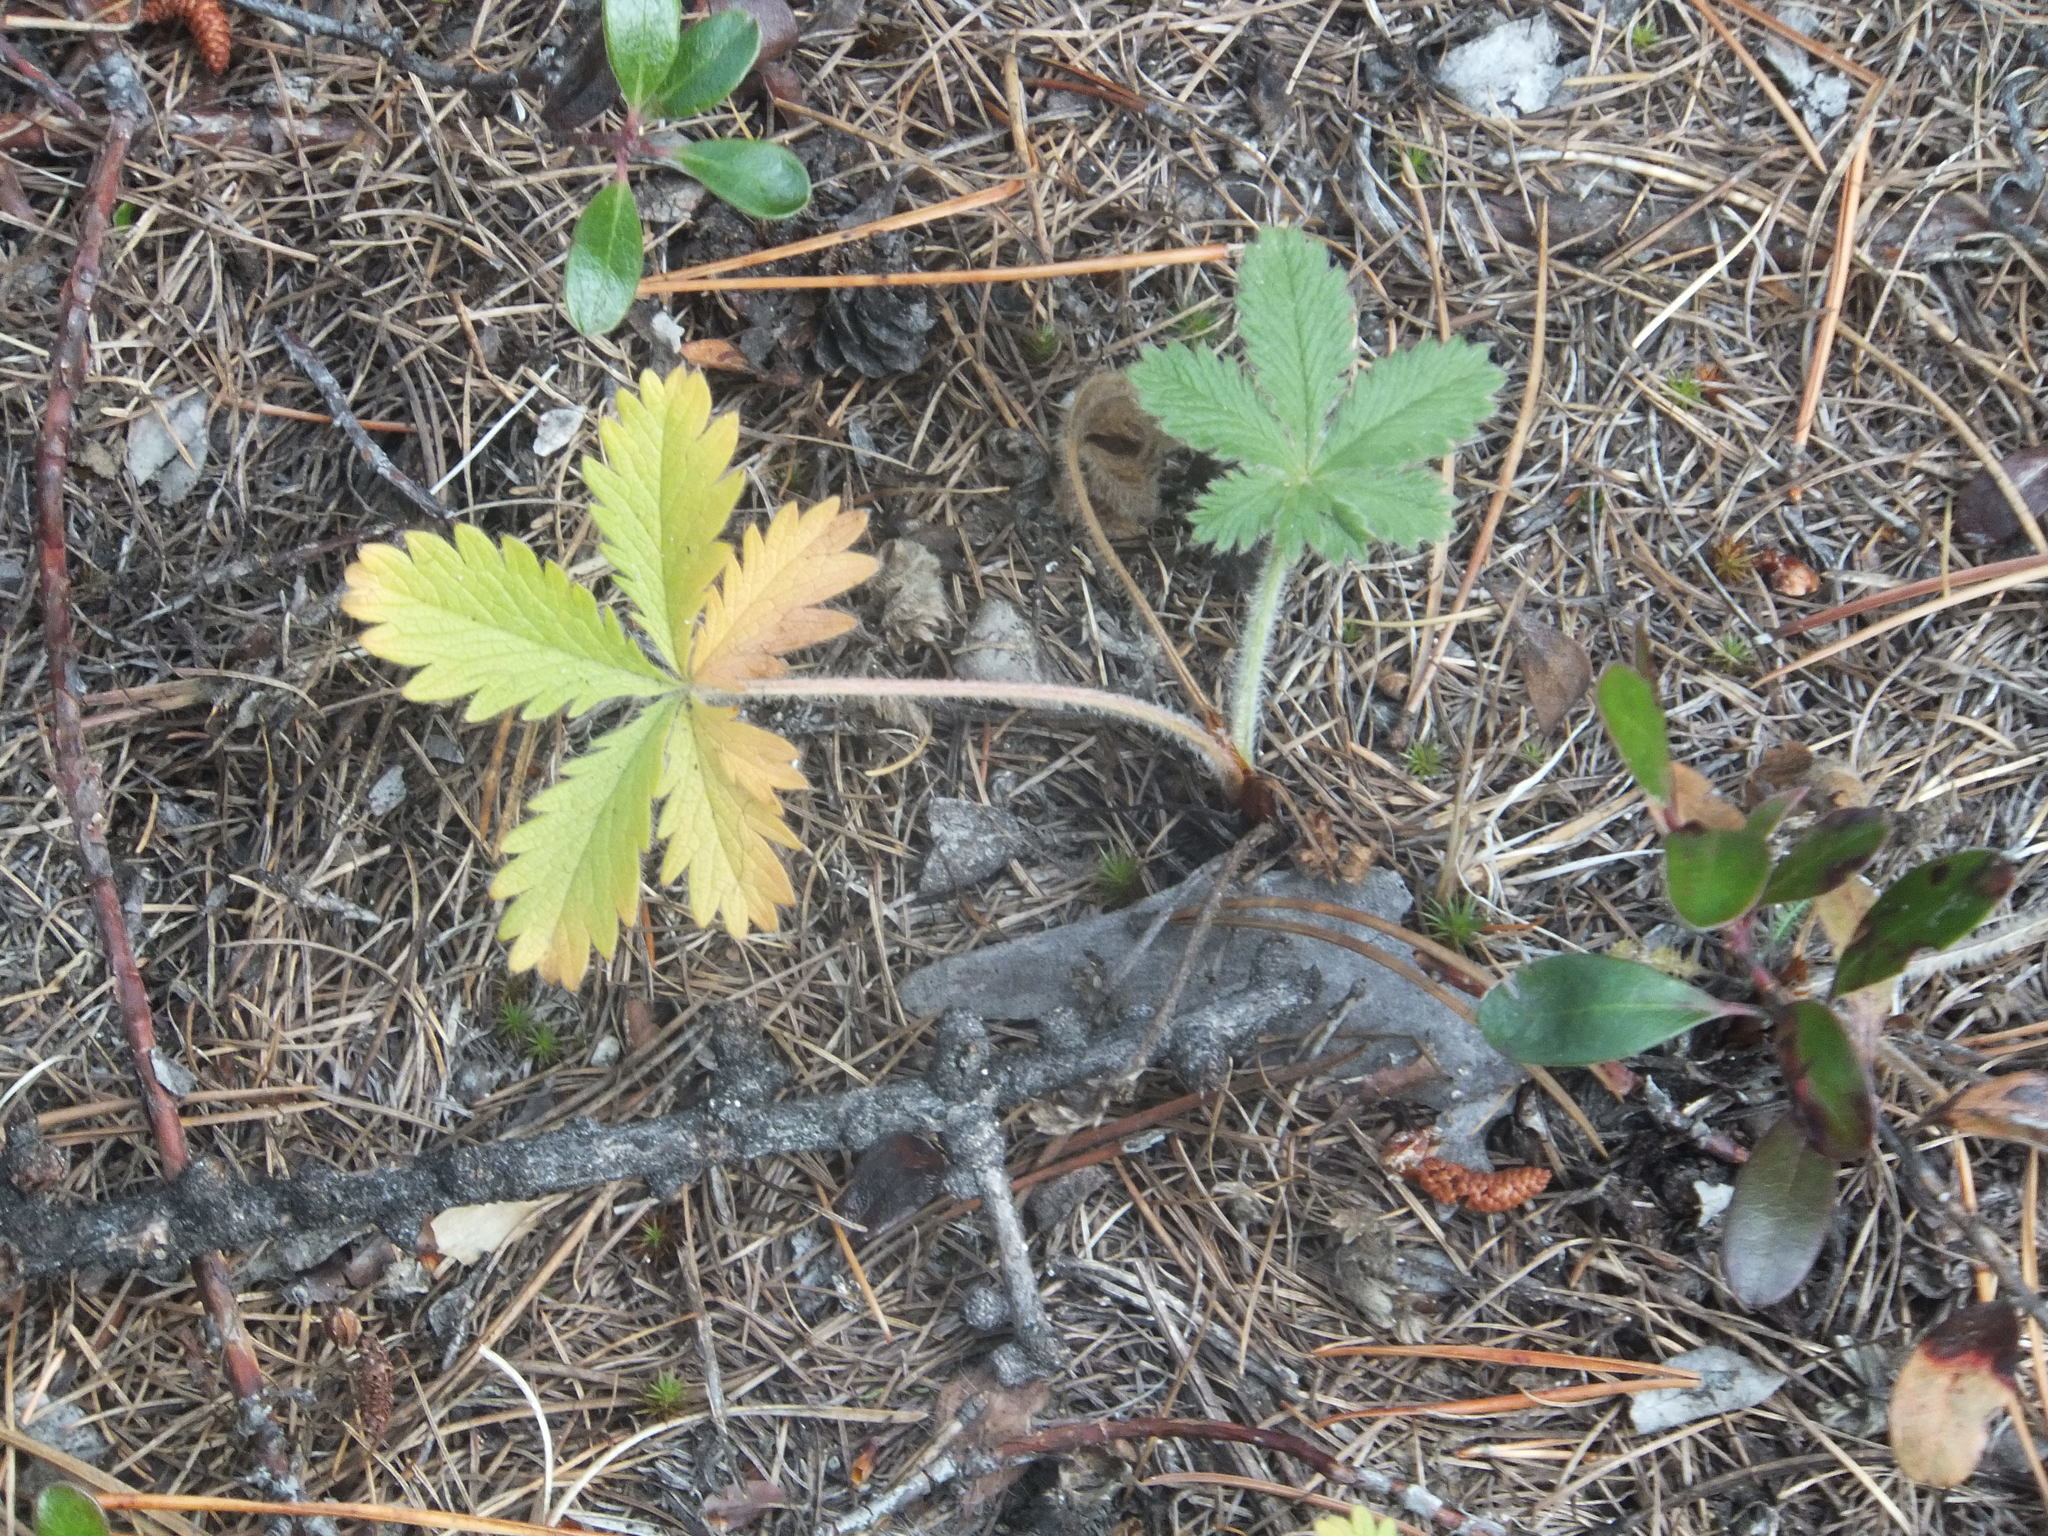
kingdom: Plantae
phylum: Tracheophyta
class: Magnoliopsida
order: Rosales
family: Rosaceae
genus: Potentilla
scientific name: Potentilla recta
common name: Sulphur cinquefoil
